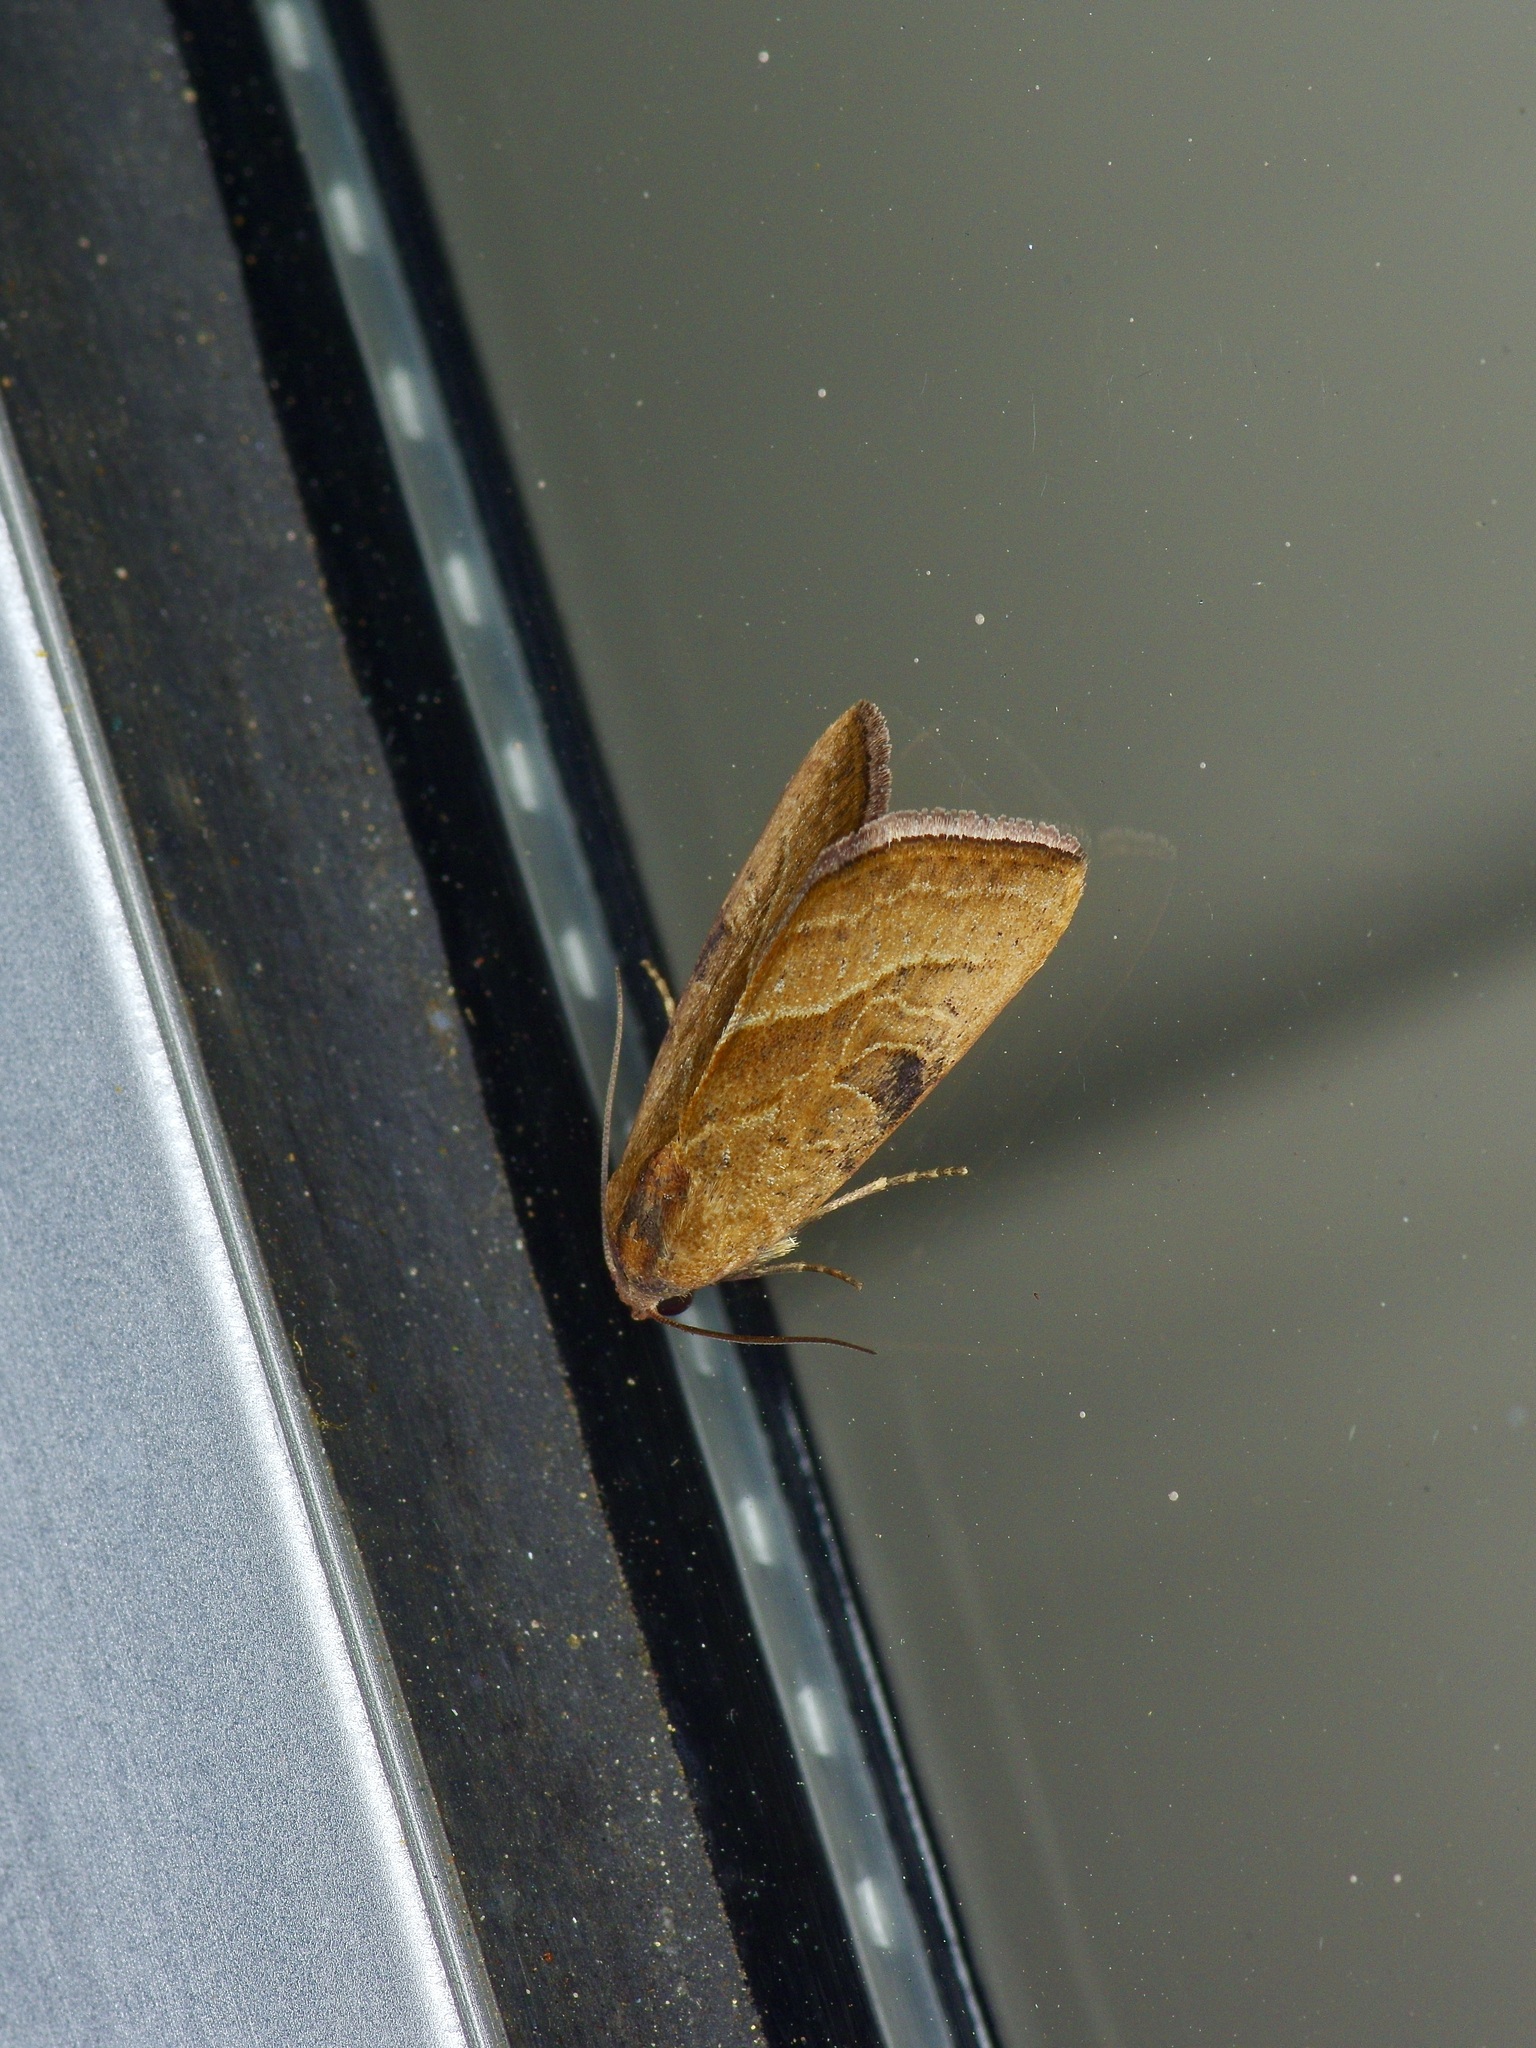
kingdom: Animalia
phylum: Arthropoda
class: Insecta
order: Lepidoptera
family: Noctuidae
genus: Galgula
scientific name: Galgula partita
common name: Wedgeling
